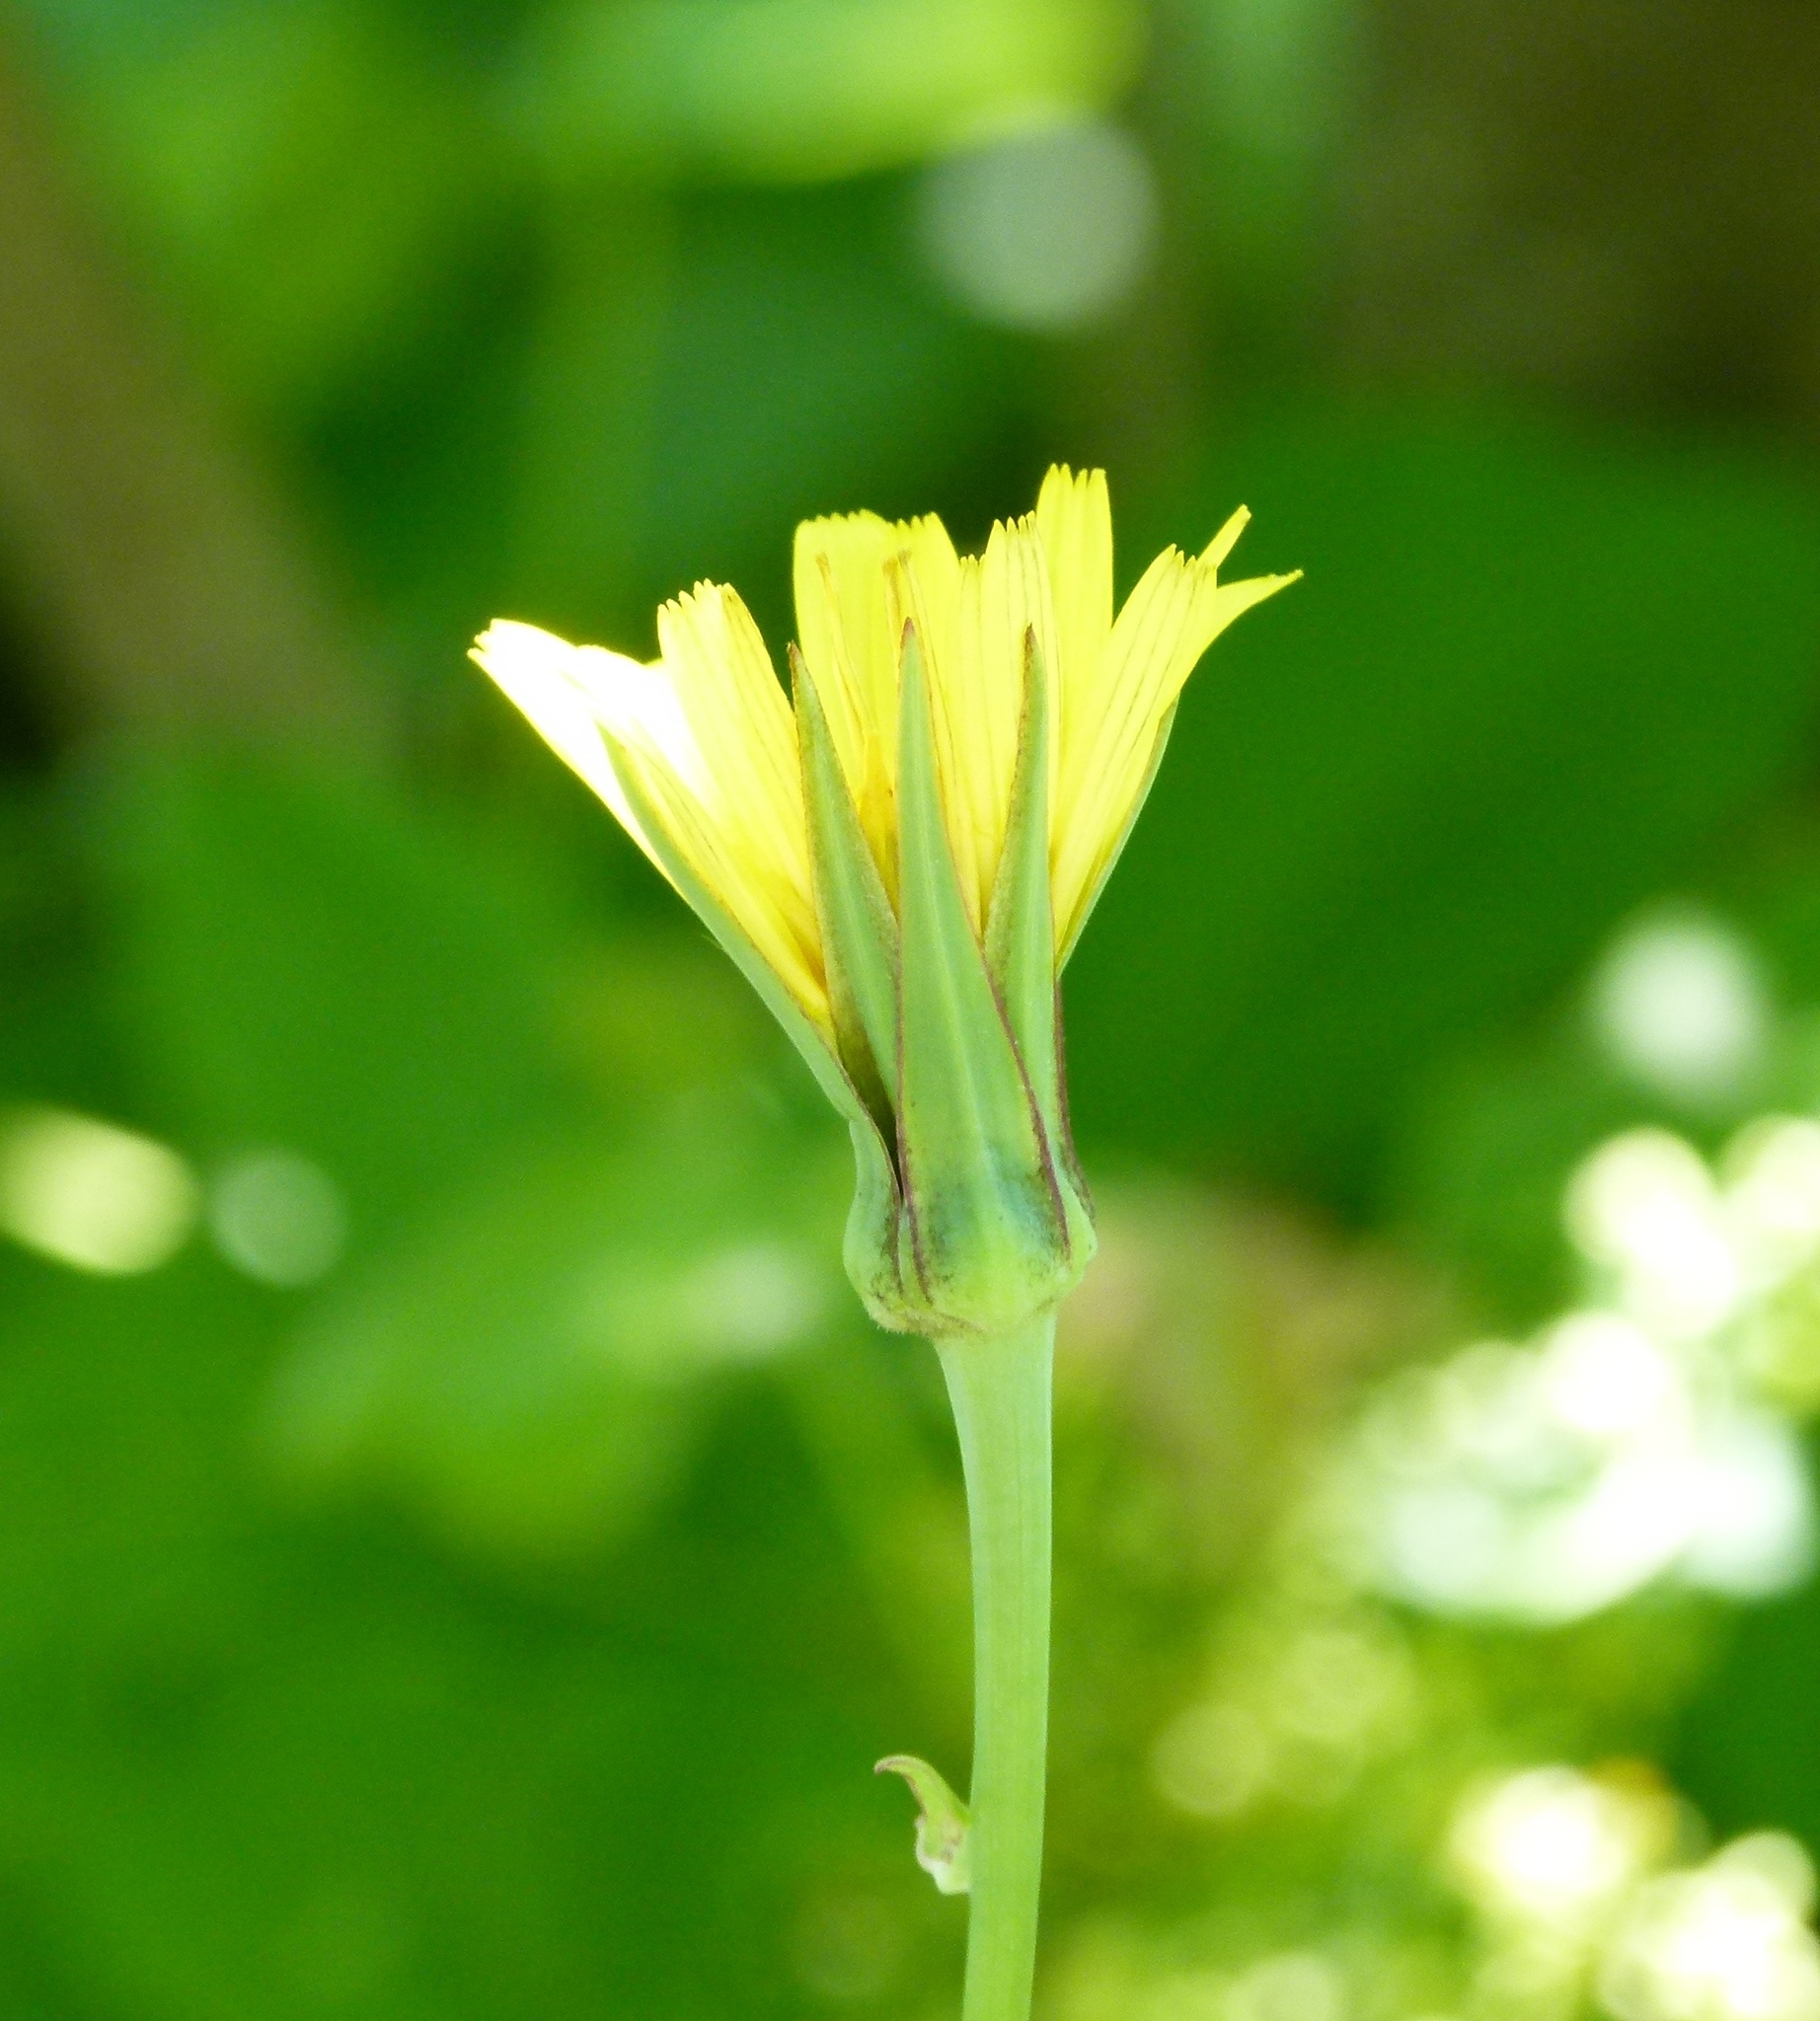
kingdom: Plantae
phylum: Tracheophyta
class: Magnoliopsida
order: Asterales
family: Asteraceae
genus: Tragopogon
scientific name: Tragopogon pratensis
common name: Goat's-beard
